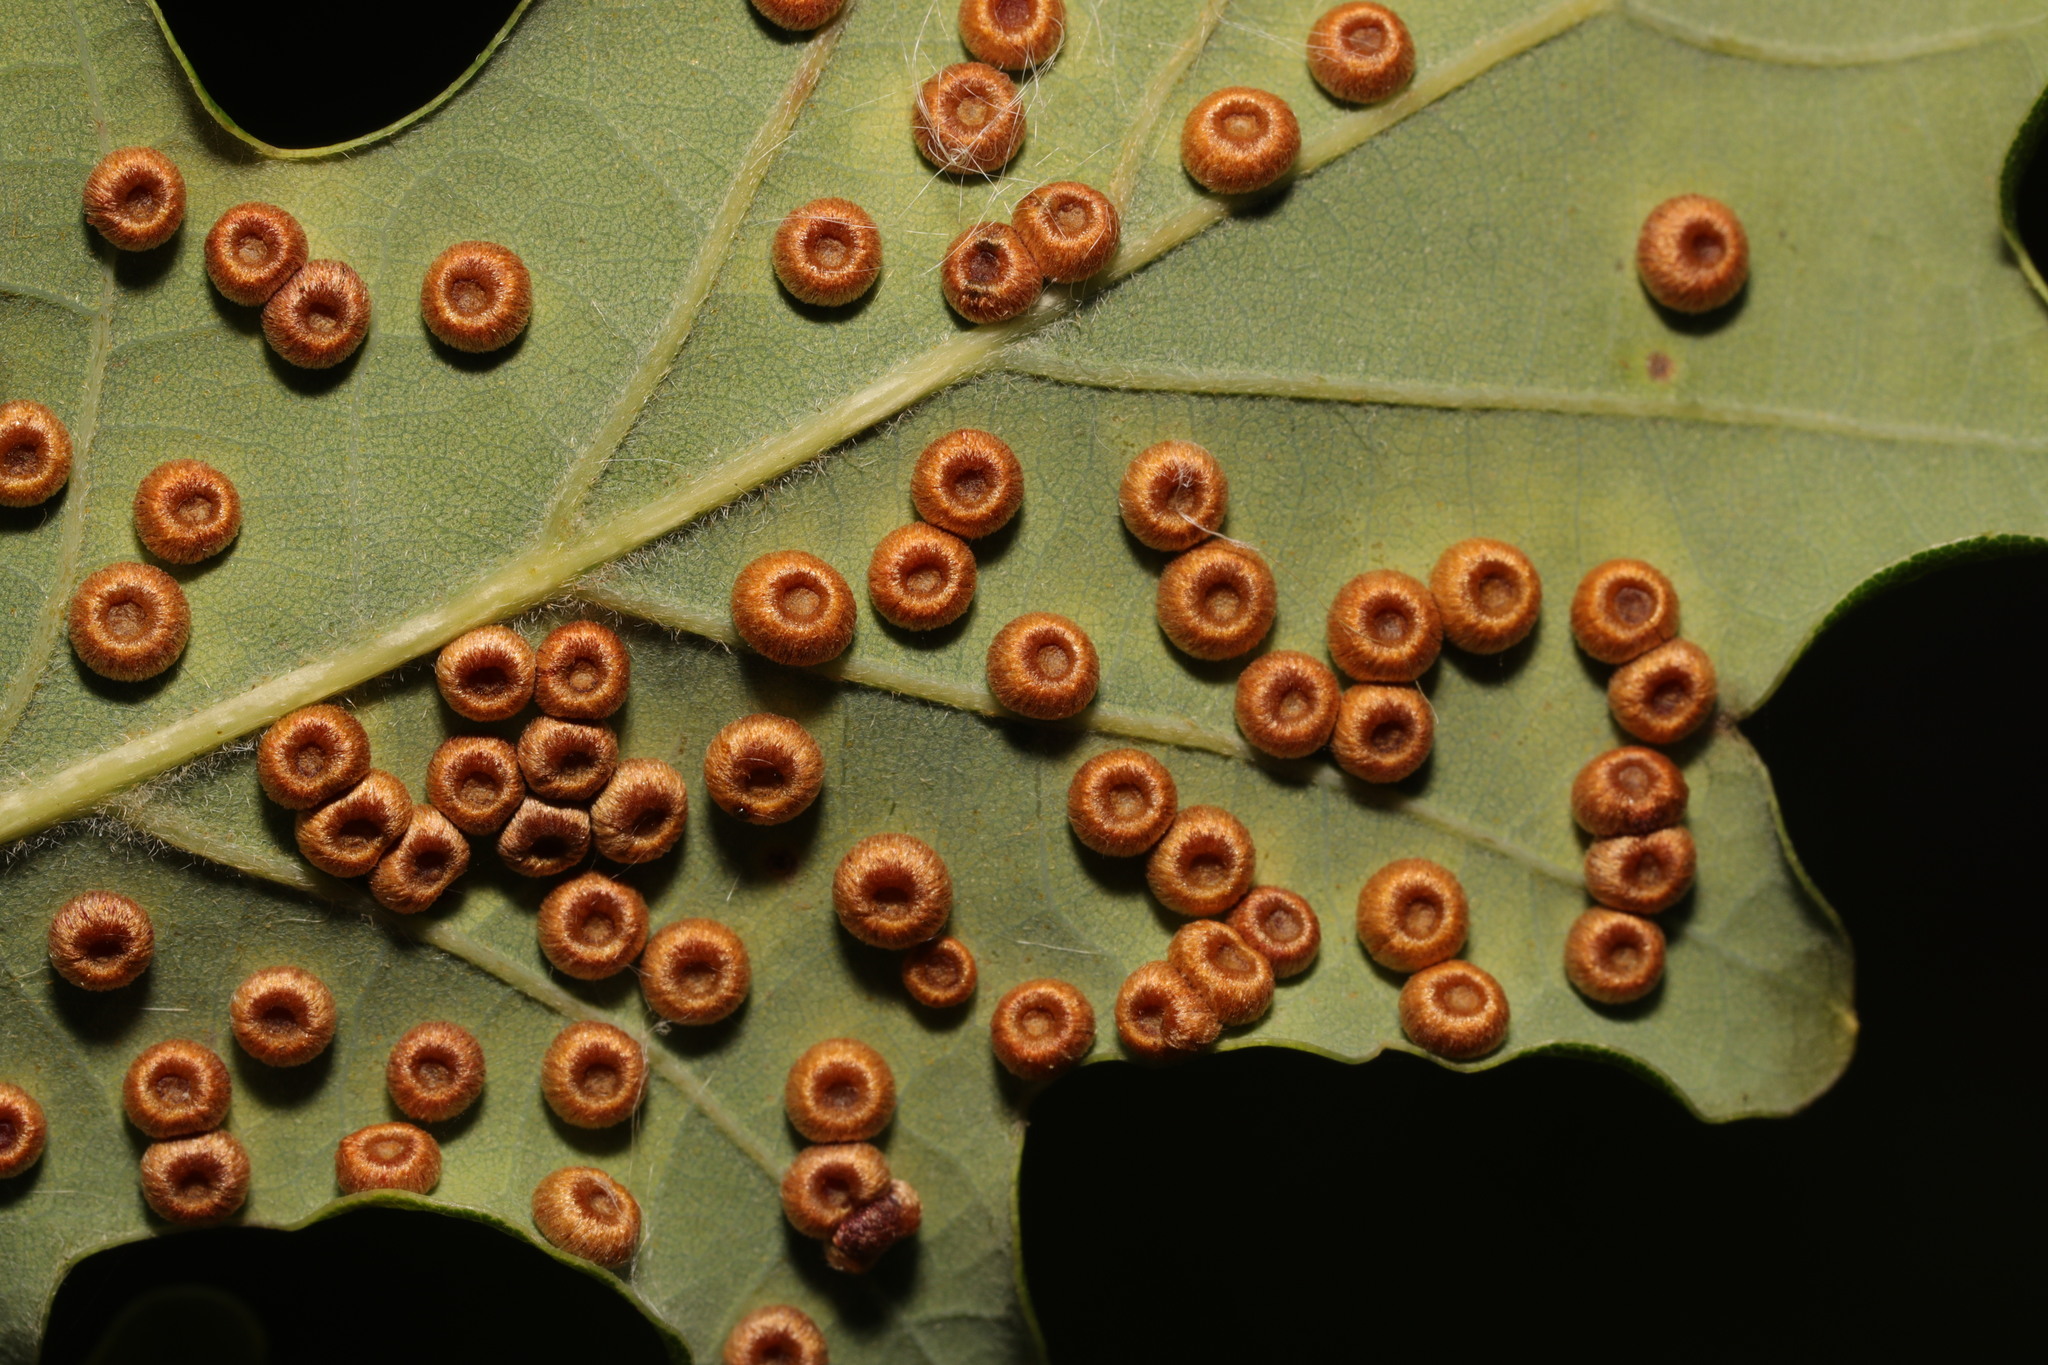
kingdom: Animalia
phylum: Arthropoda
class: Insecta
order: Hymenoptera
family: Cynipidae
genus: Neuroterus
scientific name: Neuroterus numismalis
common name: Silk-button spangle gall
